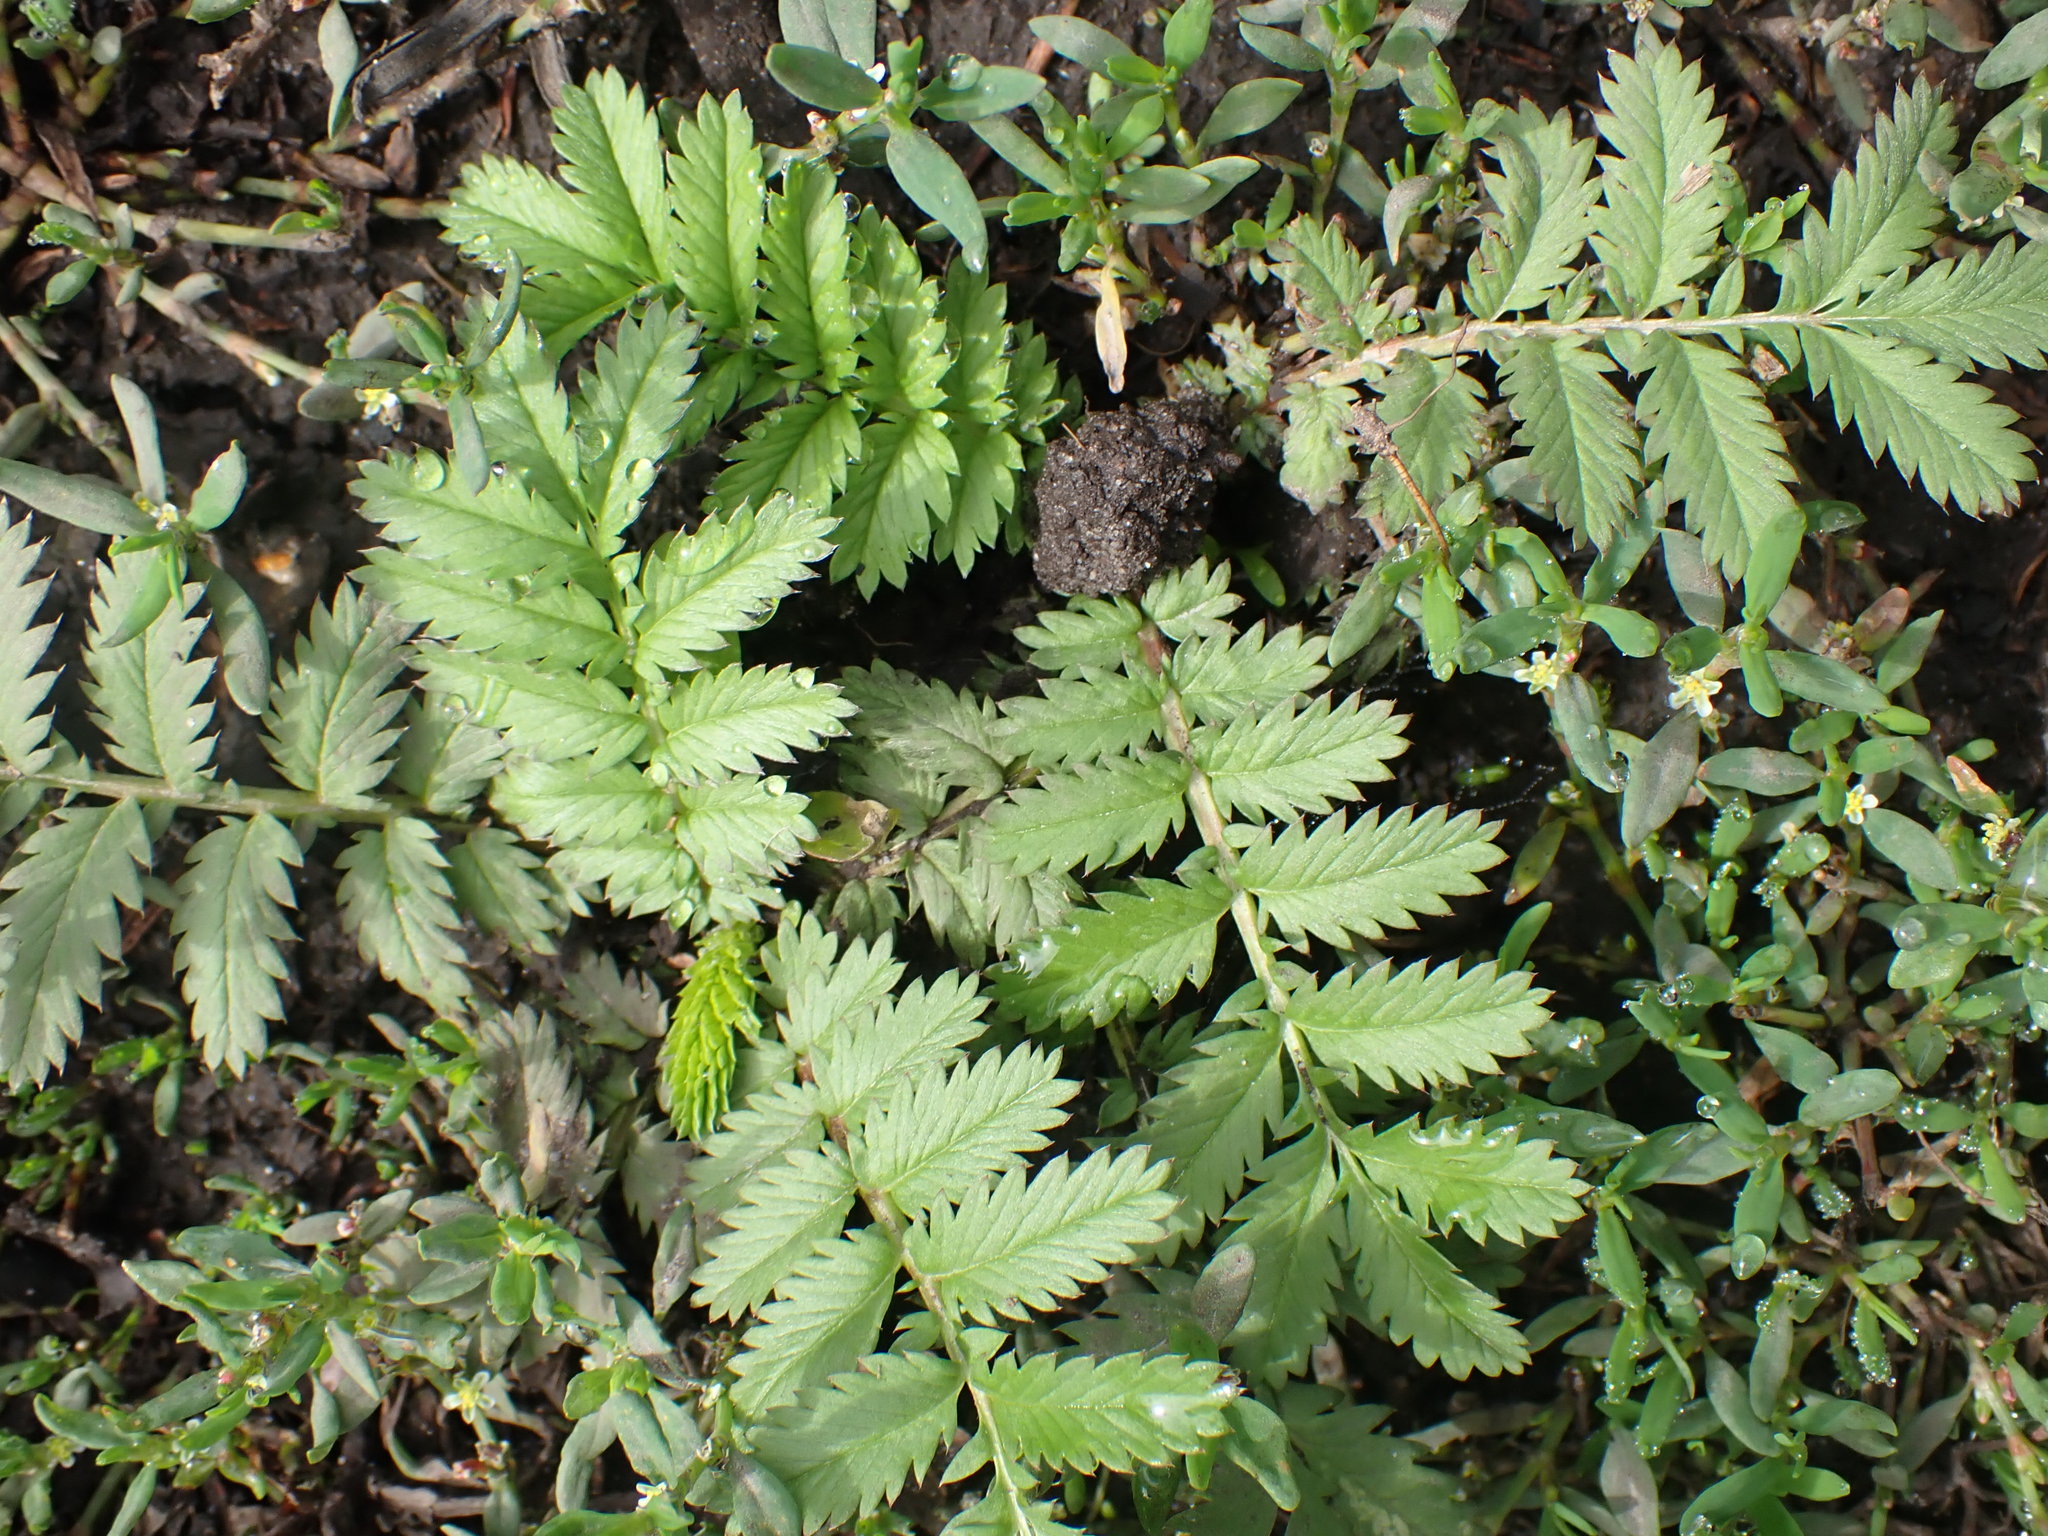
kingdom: Plantae
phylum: Tracheophyta
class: Magnoliopsida
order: Rosales
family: Rosaceae
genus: Argentina
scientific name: Argentina anserina
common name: Common silverweed
